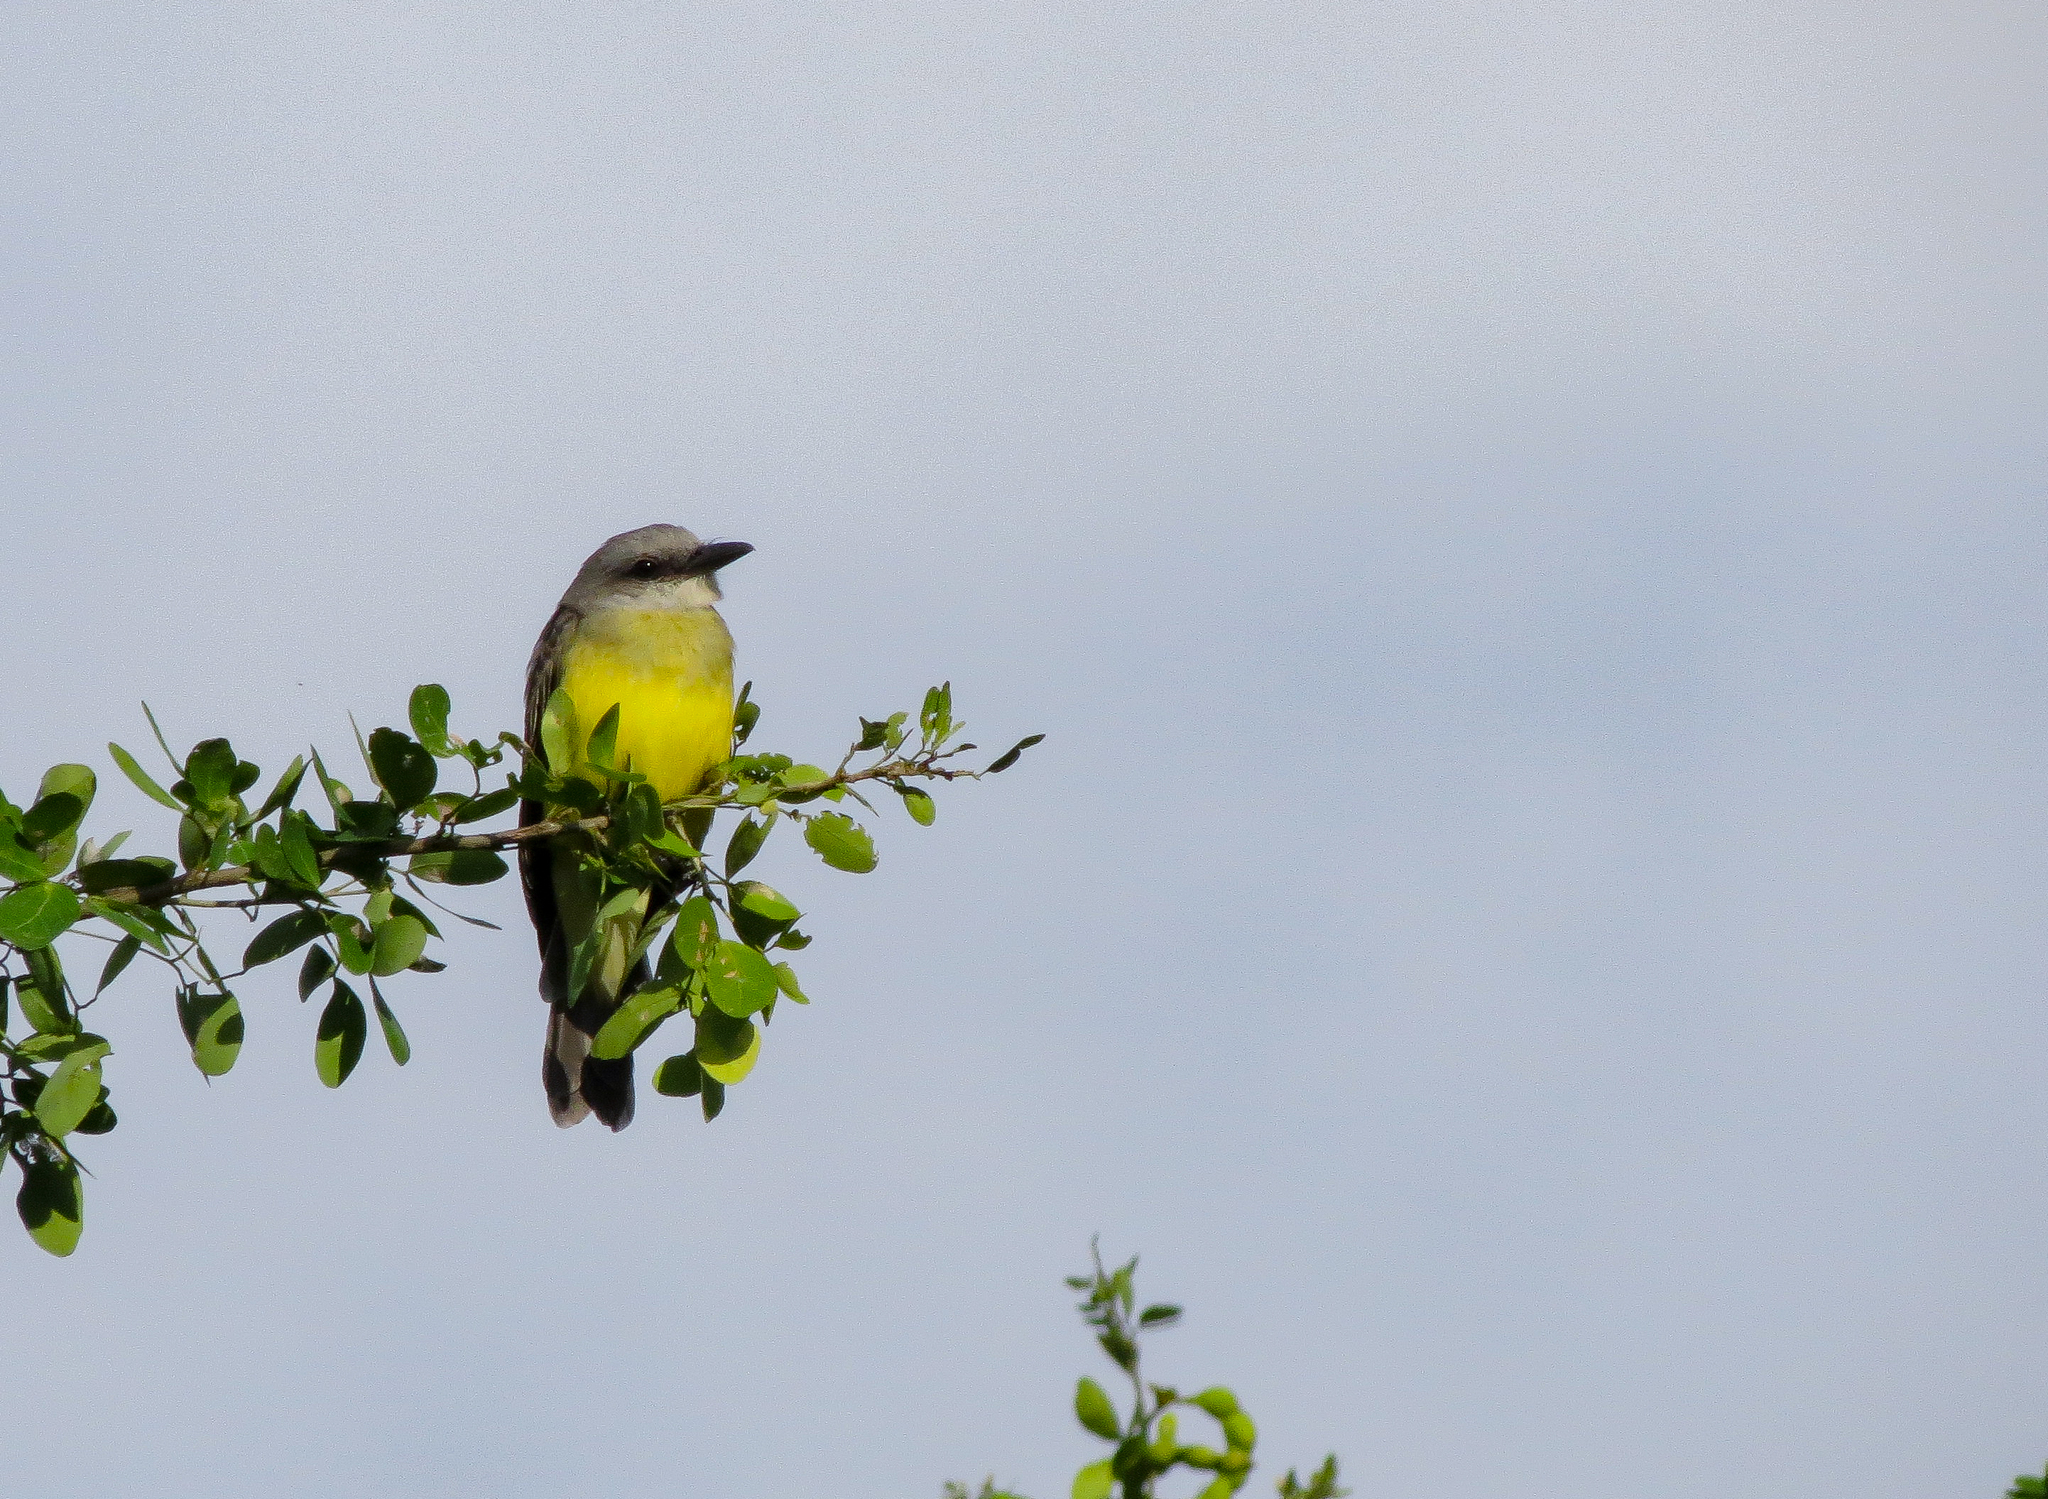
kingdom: Animalia
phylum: Chordata
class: Aves
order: Passeriformes
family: Tyrannidae
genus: Tyrannus
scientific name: Tyrannus melancholicus
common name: Tropical kingbird
